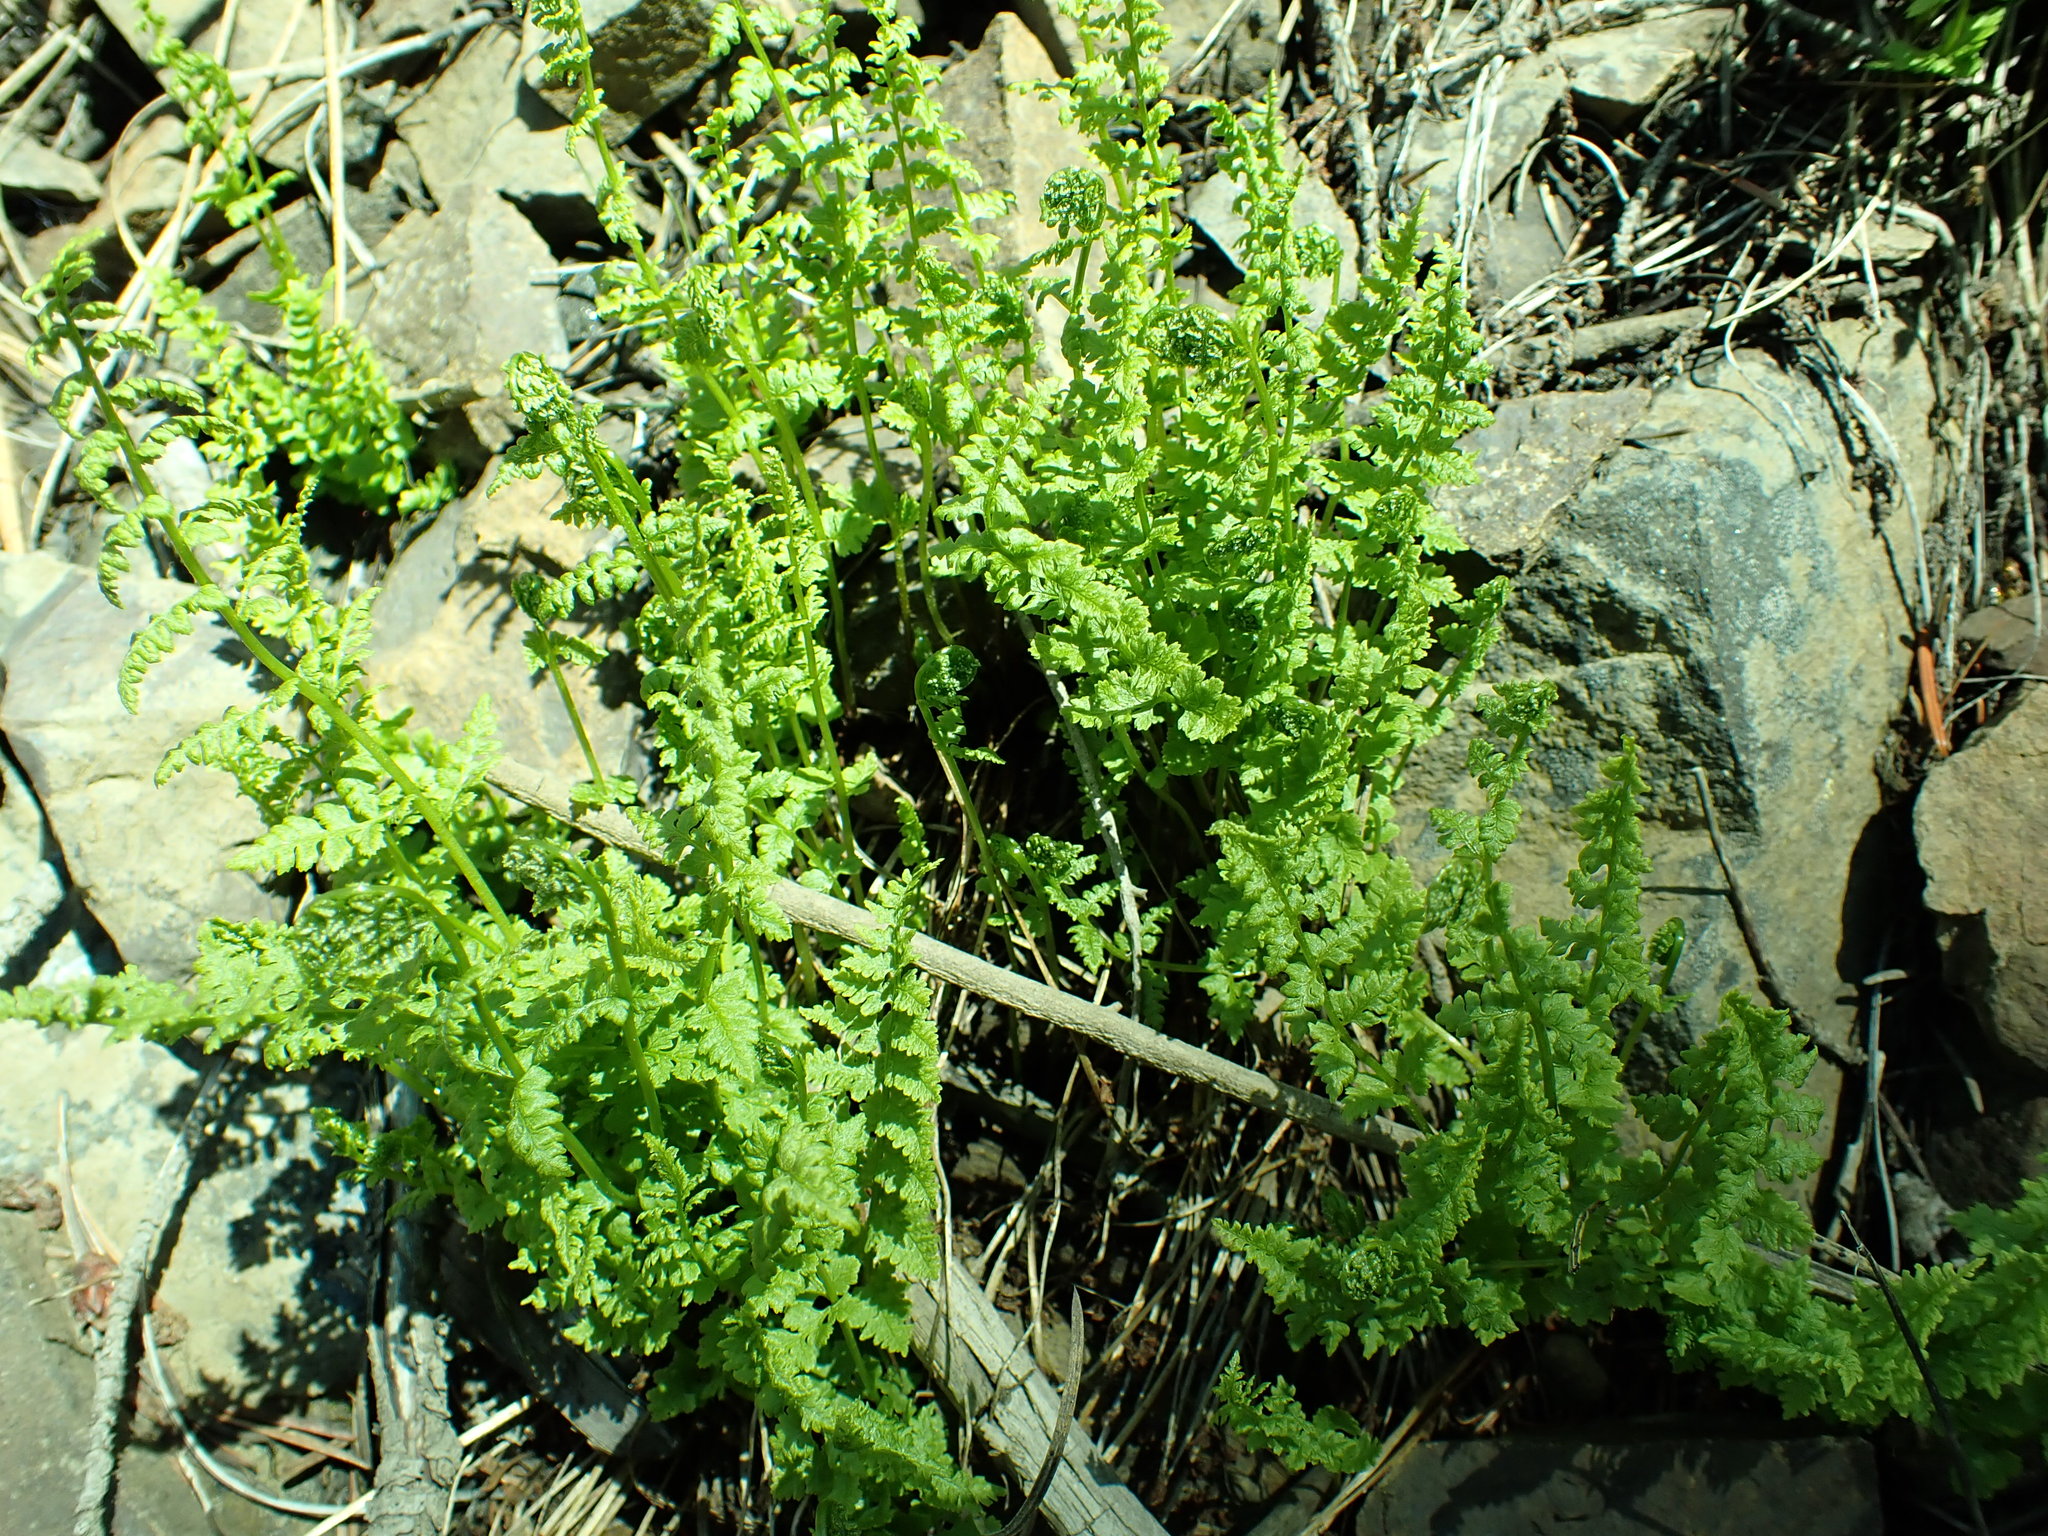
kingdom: Plantae
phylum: Tracheophyta
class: Polypodiopsida
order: Polypodiales
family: Cystopteridaceae
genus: Cystopteris
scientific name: Cystopteris fragilis
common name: Brittle bladder fern
